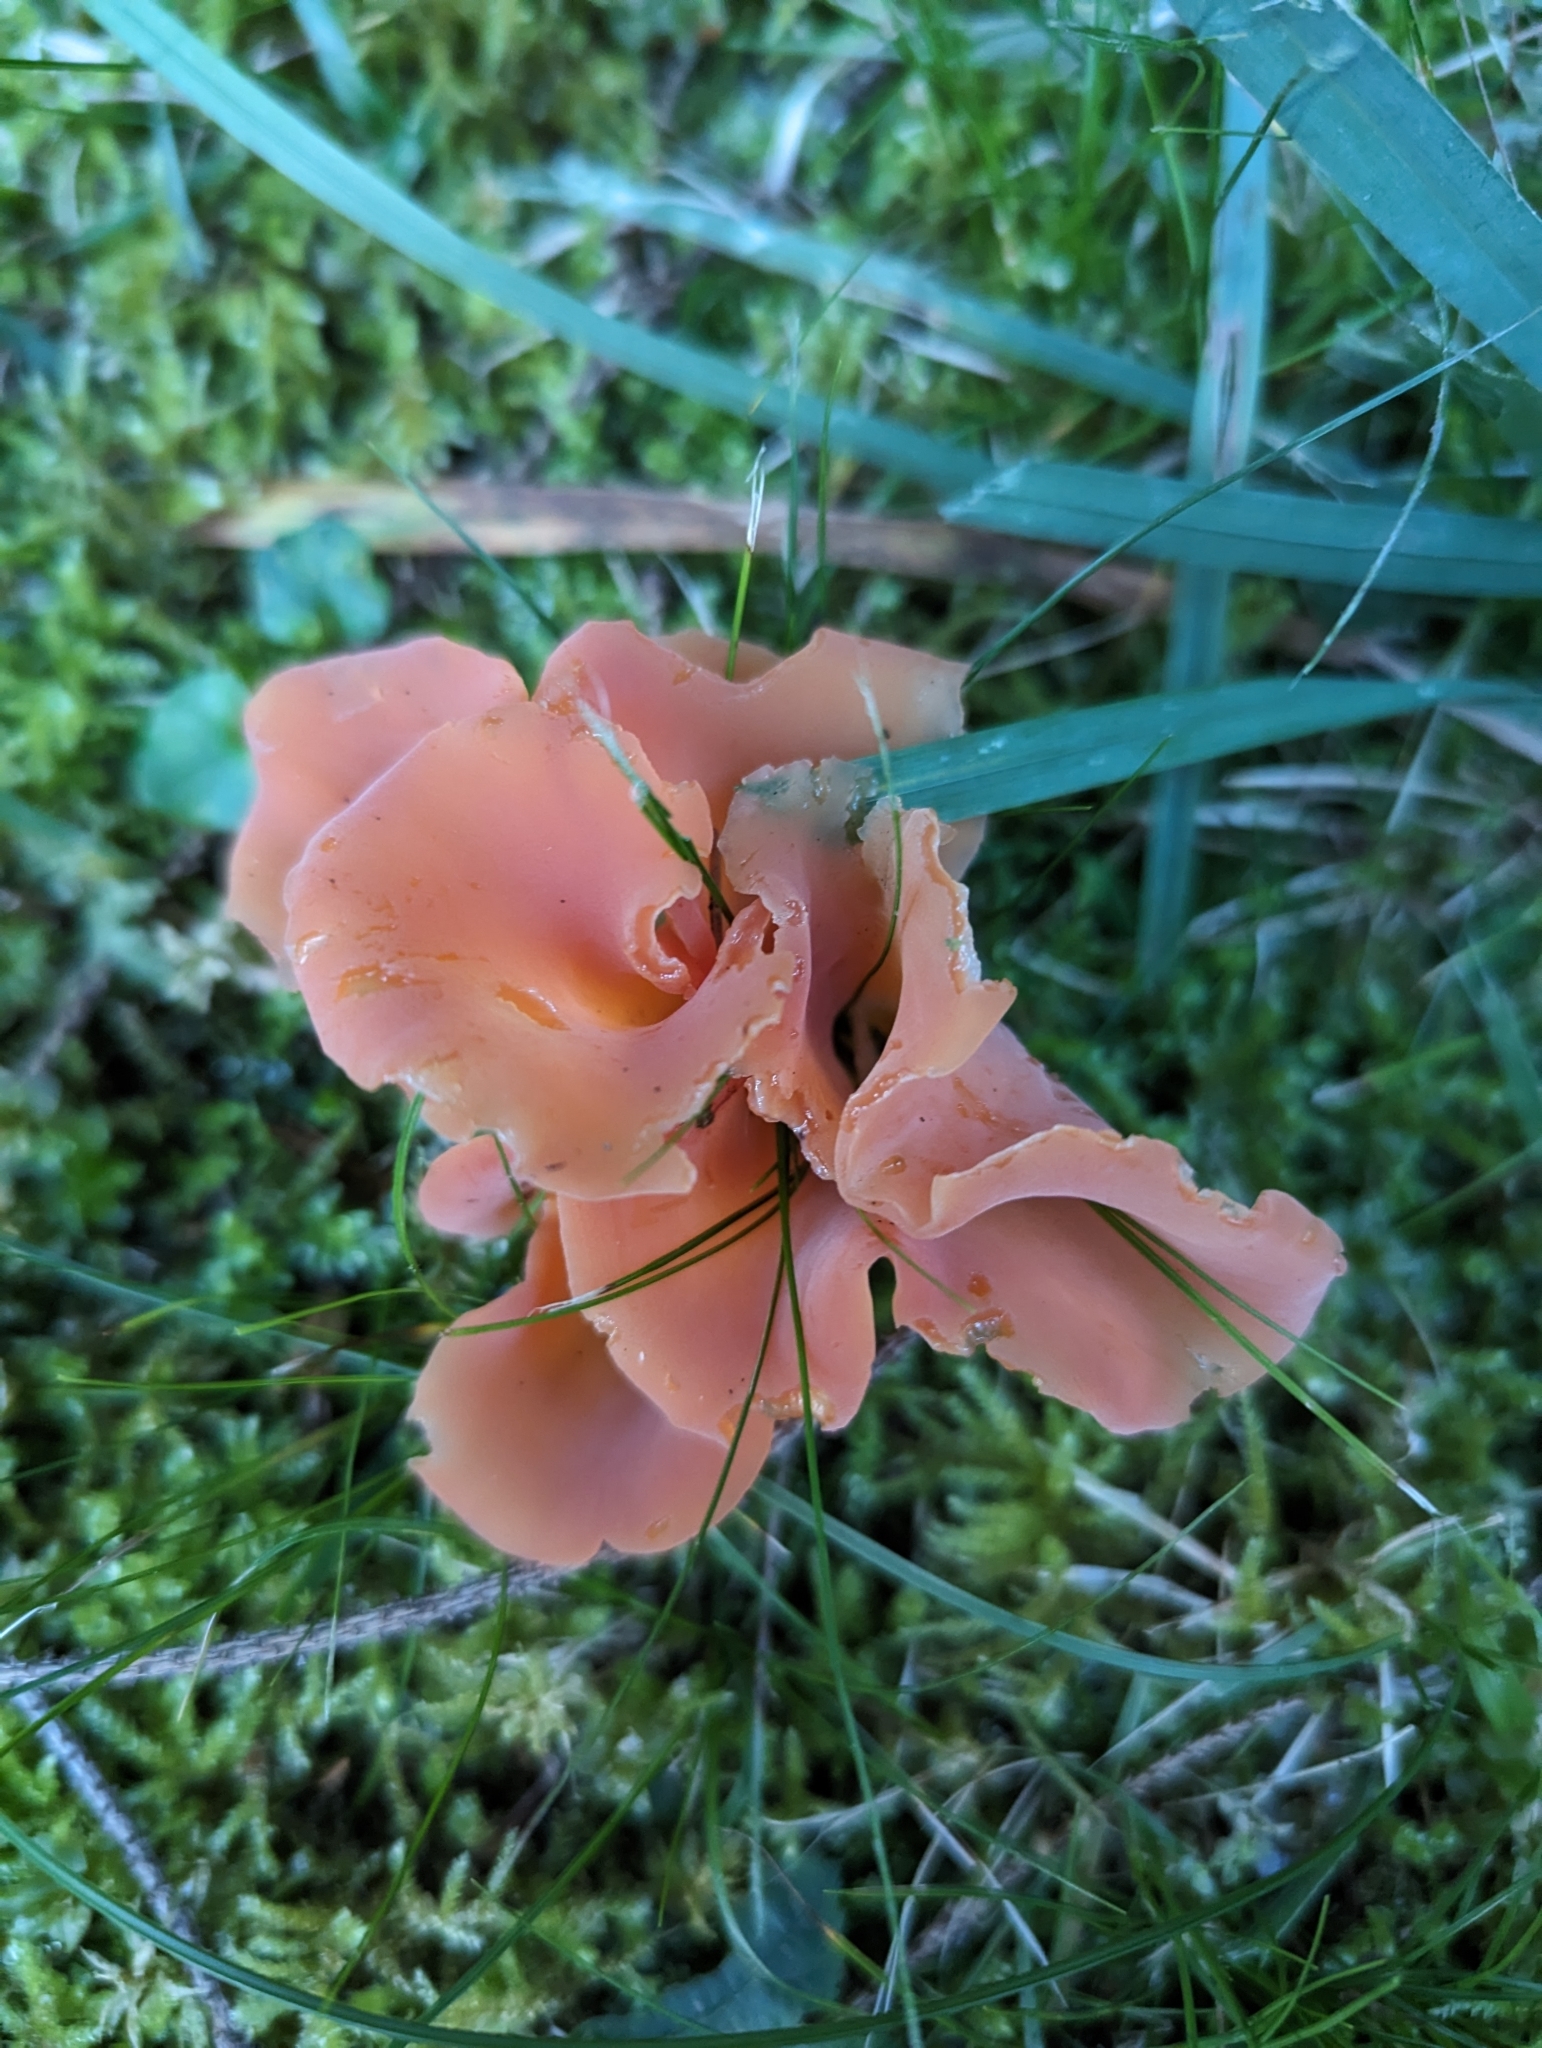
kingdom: Fungi
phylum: Basidiomycota
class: Agaricomycetes
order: Auriculariales
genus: Guepinia
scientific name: Guepinia helvelloides
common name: Salmon salad
